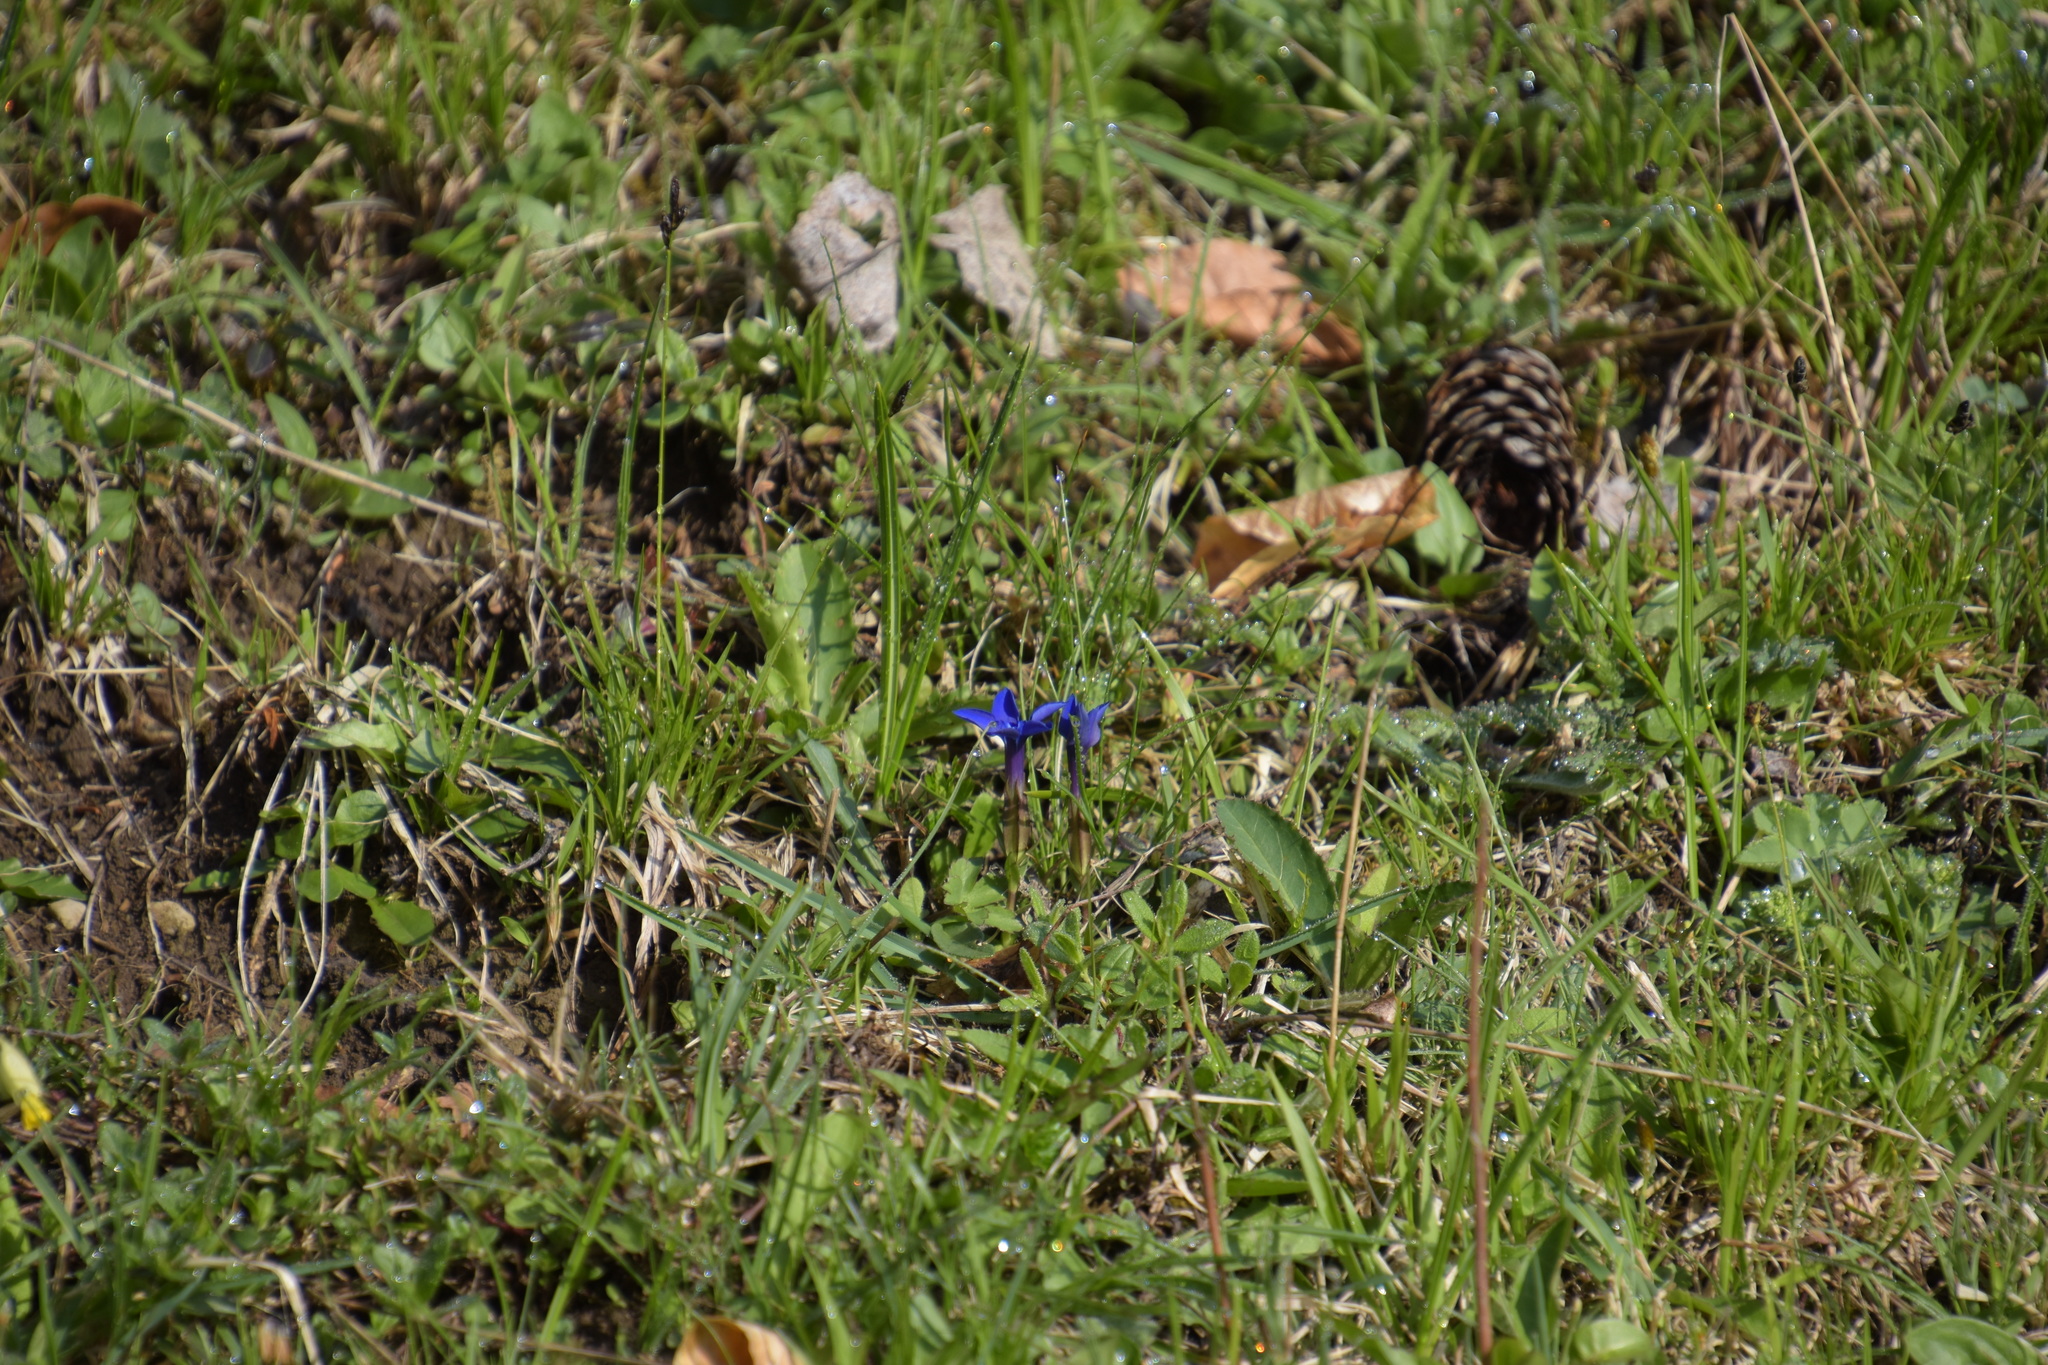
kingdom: Plantae
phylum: Tracheophyta
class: Magnoliopsida
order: Gentianales
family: Gentianaceae
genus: Gentiana
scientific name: Gentiana verna
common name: Spring gentian
